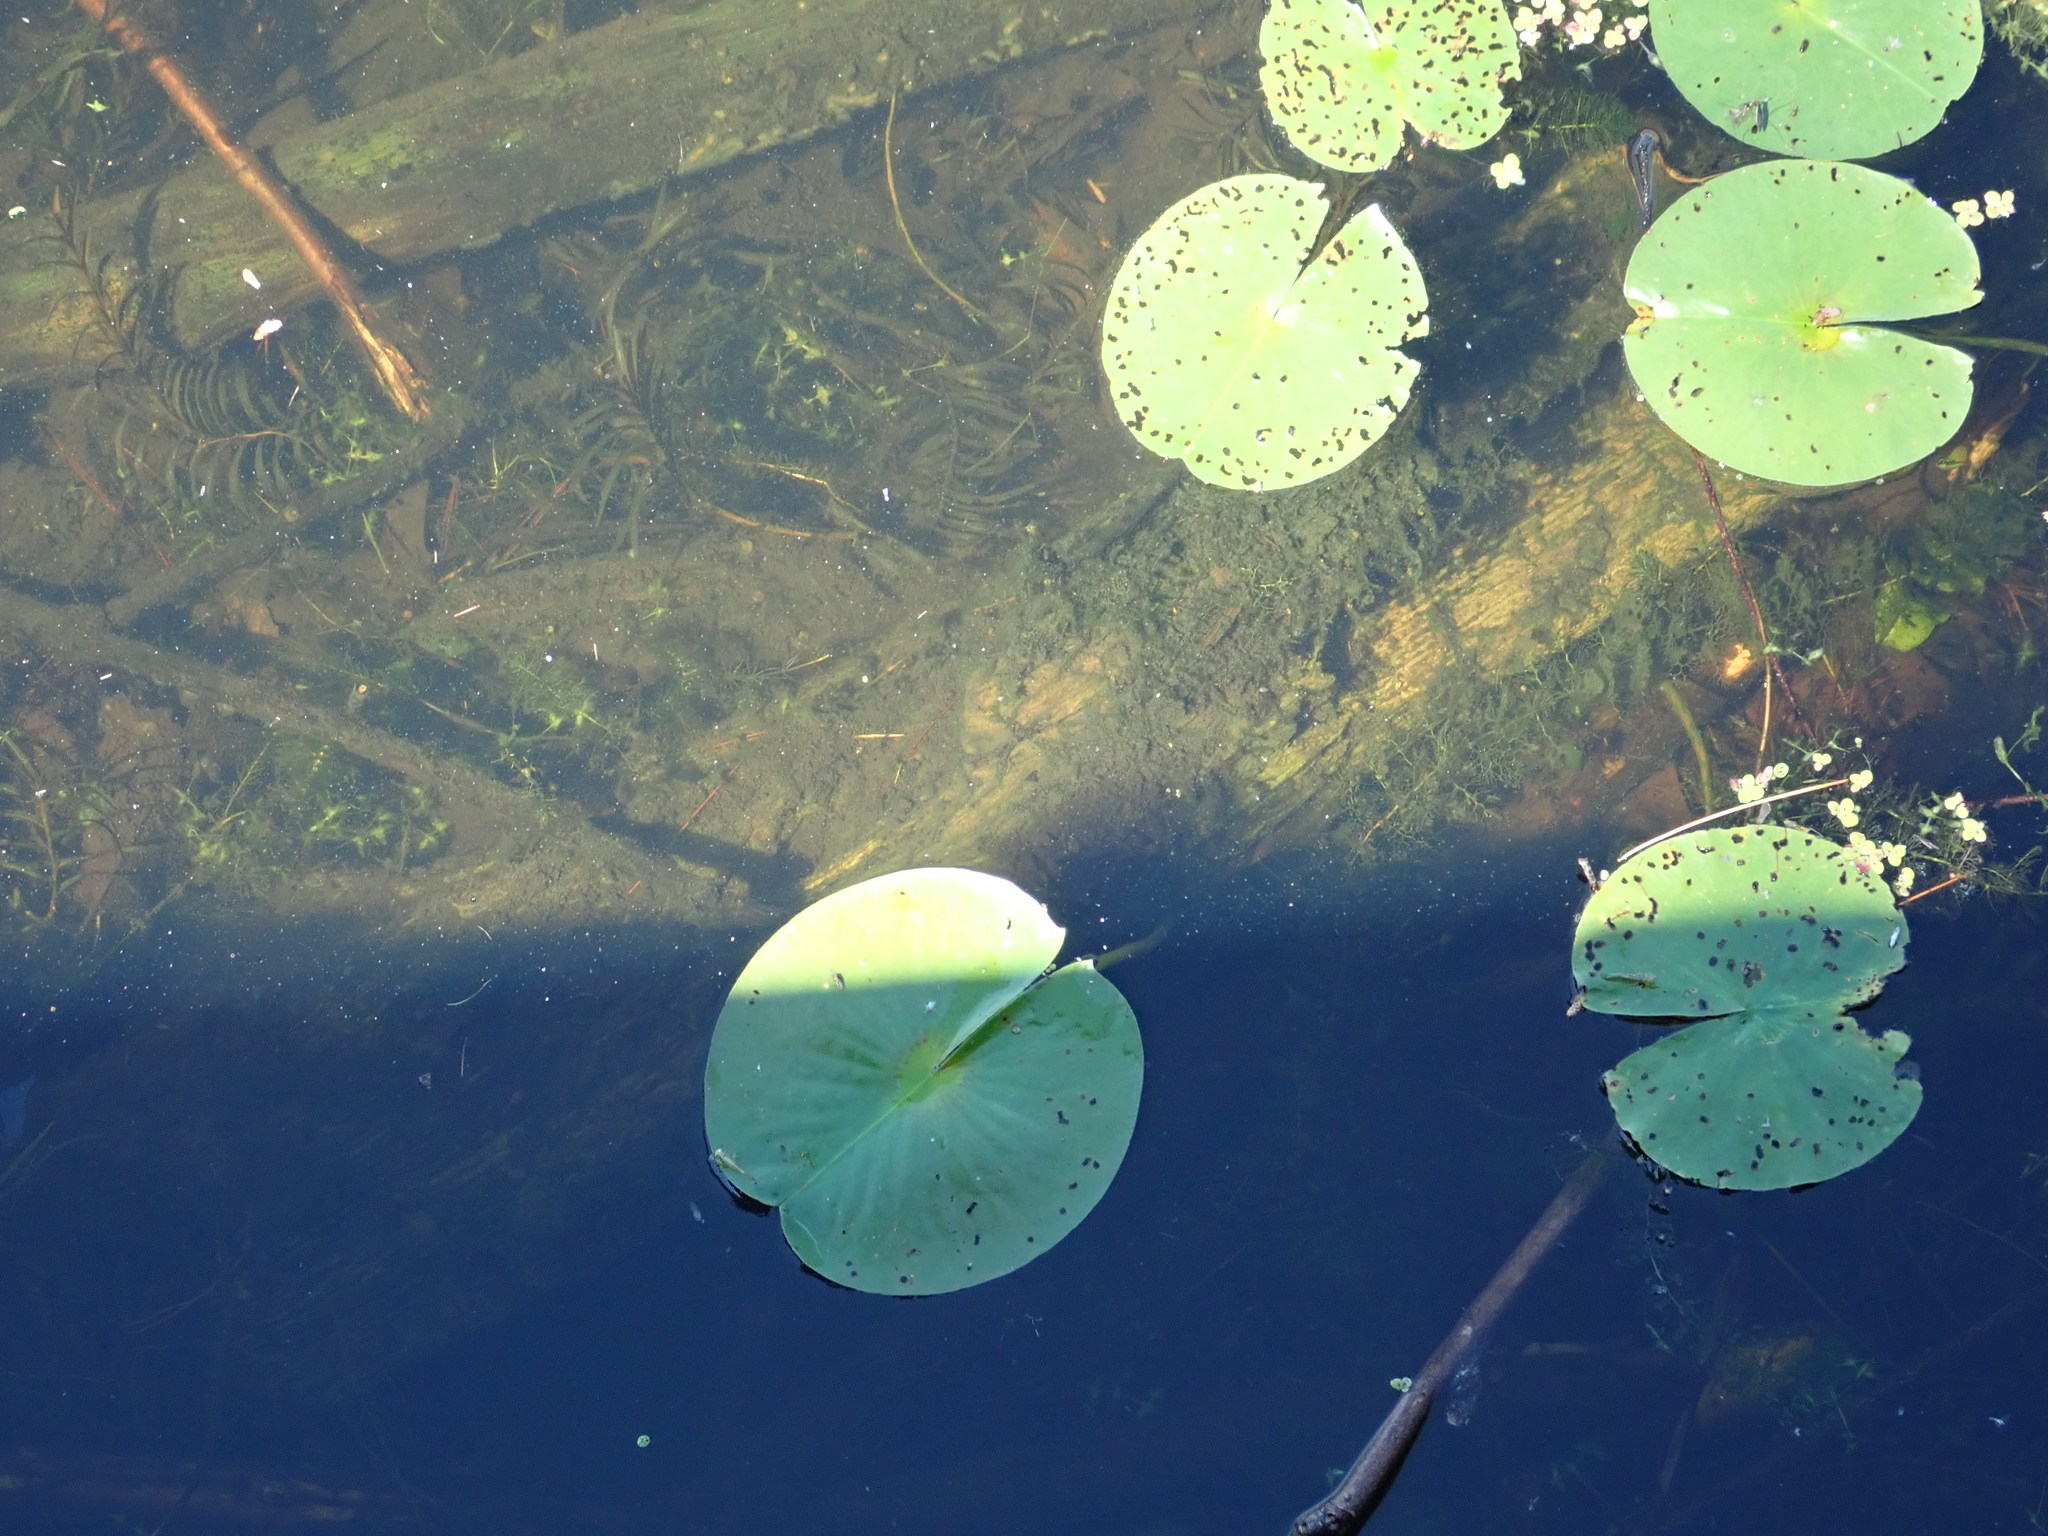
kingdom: Plantae
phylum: Tracheophyta
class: Magnoliopsida
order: Nymphaeales
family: Nymphaeaceae
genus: Nymphaea
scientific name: Nymphaea odorata
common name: Fragrant water-lily
